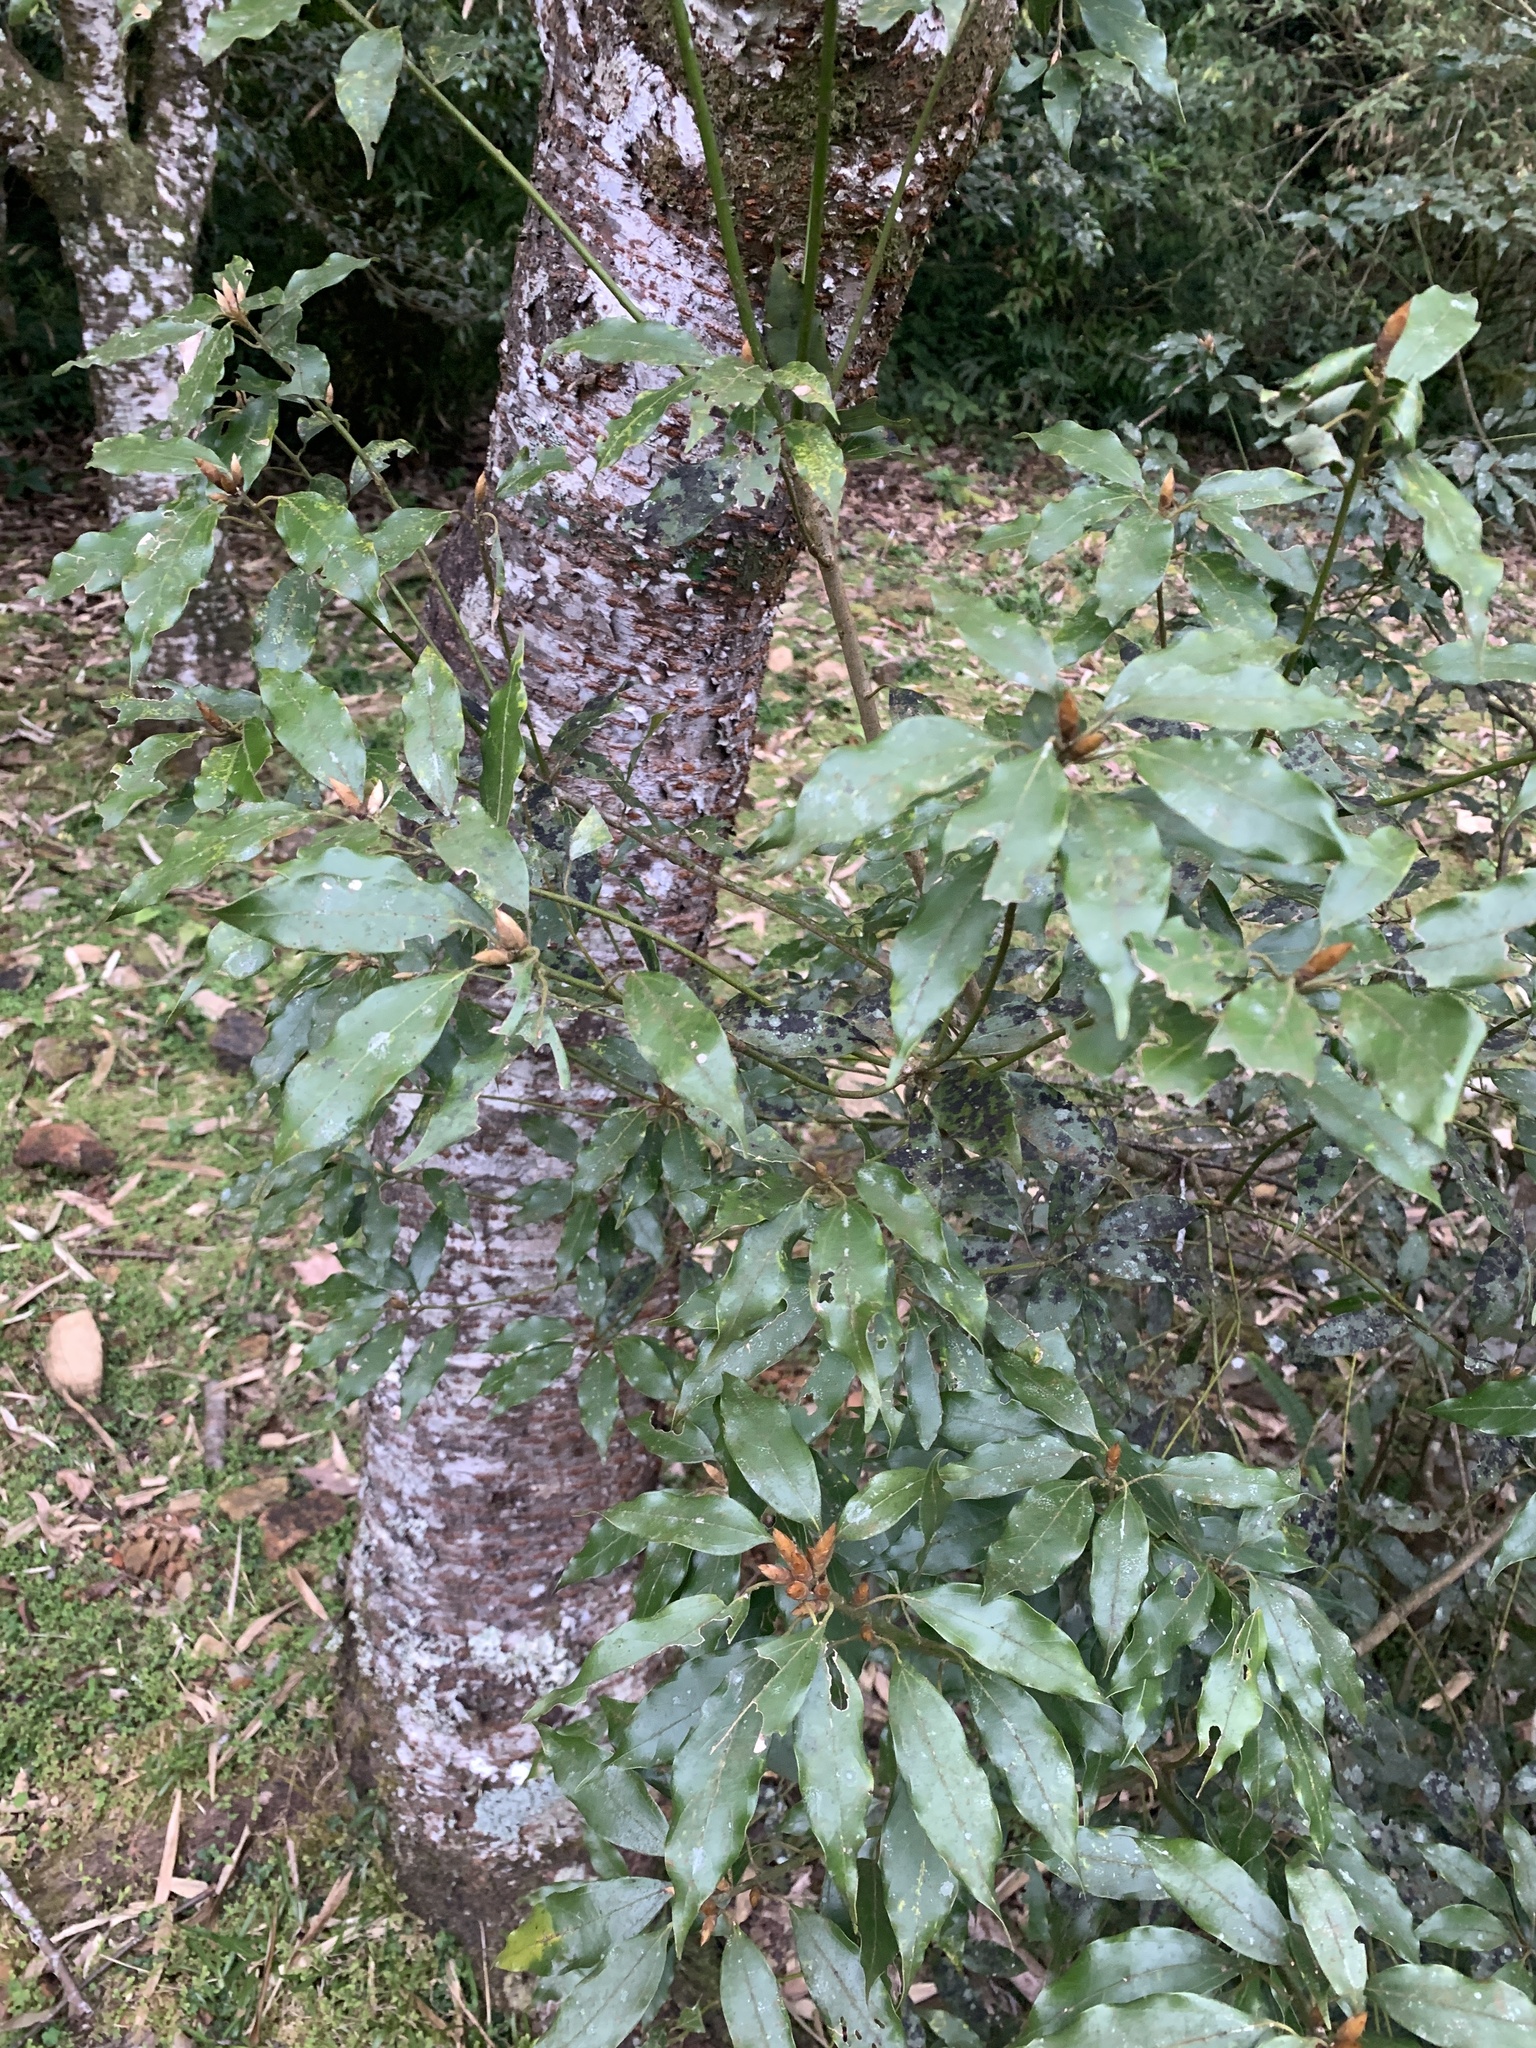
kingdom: Plantae
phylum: Tracheophyta
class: Magnoliopsida
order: Laurales
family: Lauraceae
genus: Neolitsea
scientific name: Neolitsea sericea
